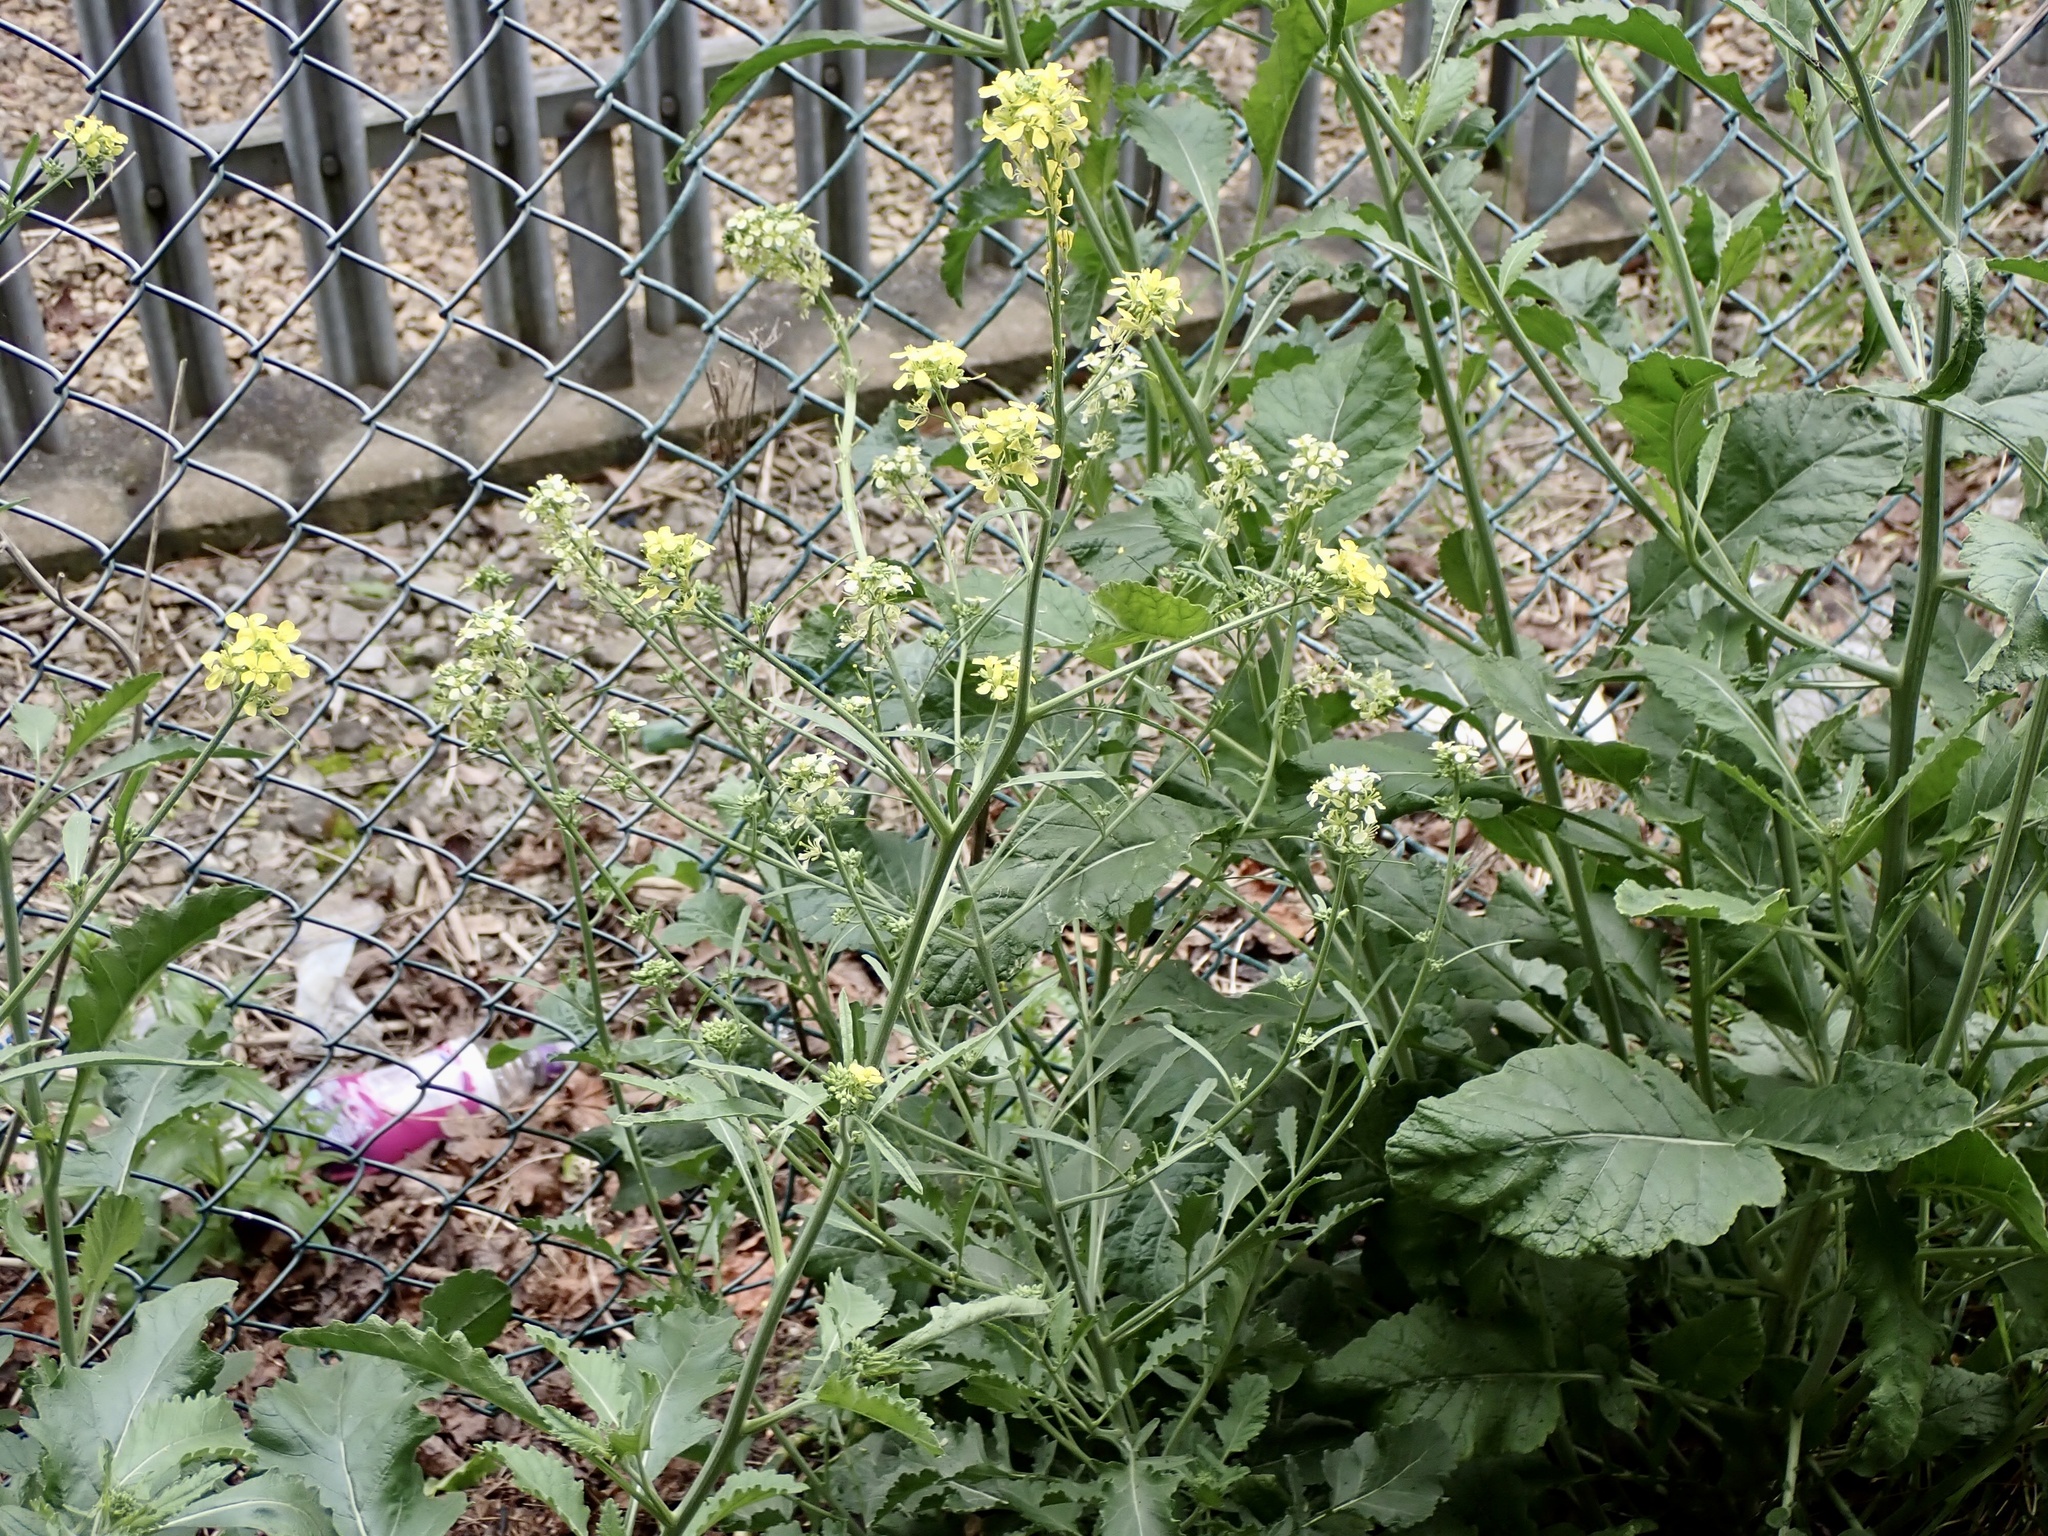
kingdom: Plantae
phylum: Tracheophyta
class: Magnoliopsida
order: Brassicales
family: Brassicaceae
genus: Brassica
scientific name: Brassica nigra
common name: Black mustard
